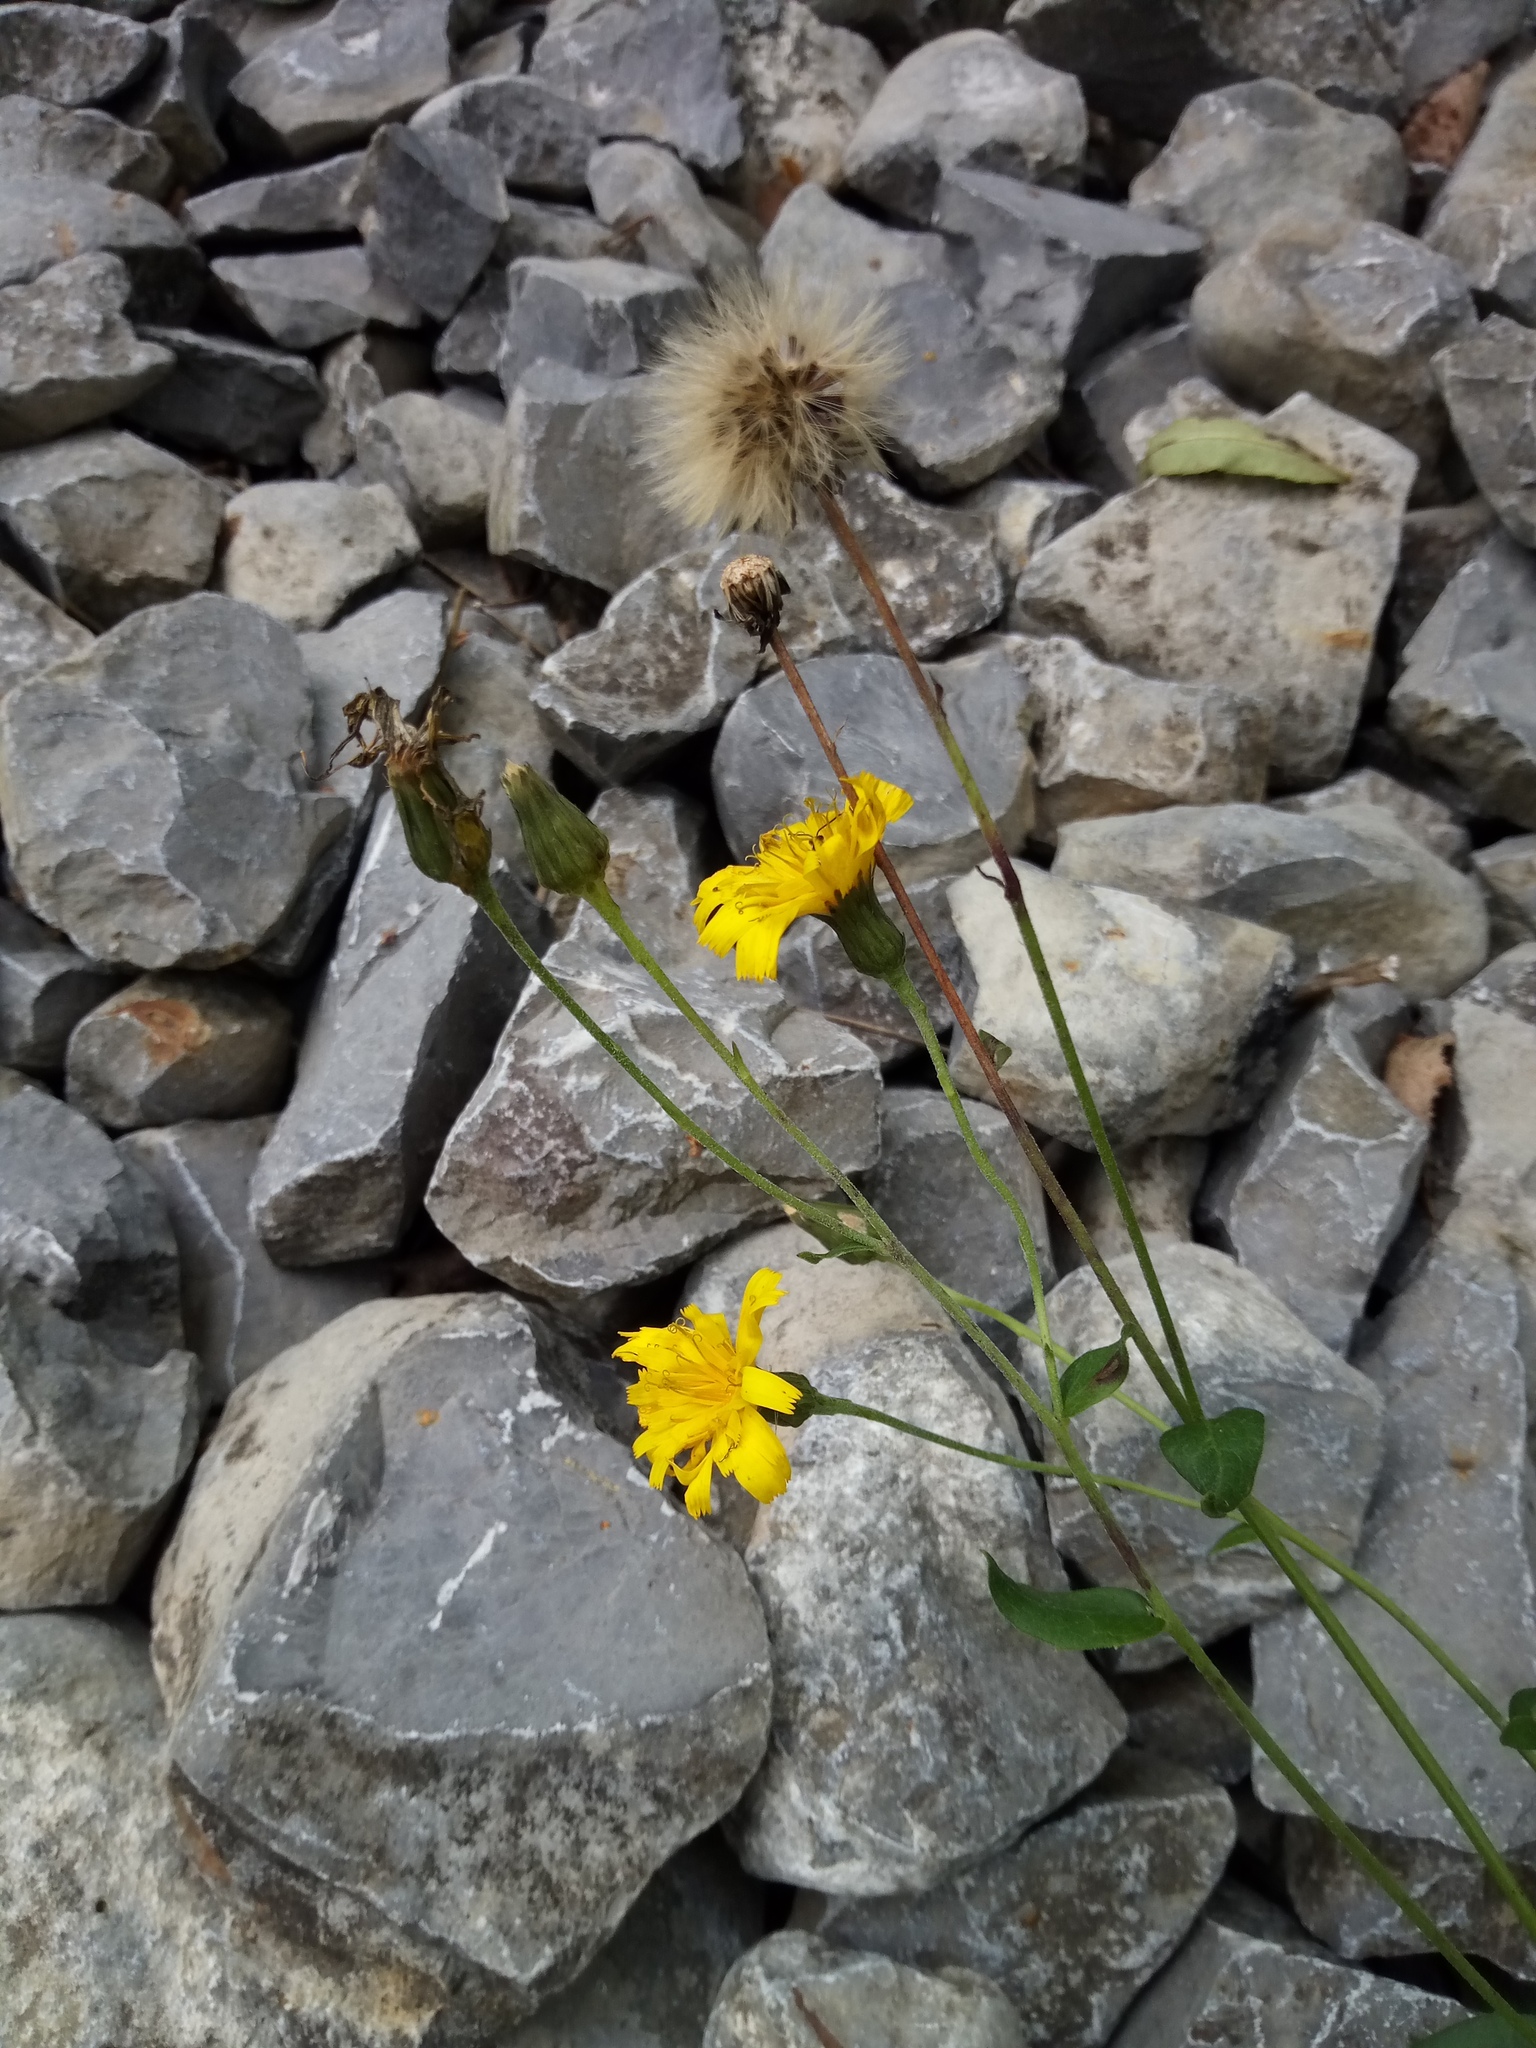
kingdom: Plantae
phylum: Tracheophyta
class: Magnoliopsida
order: Asterales
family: Asteraceae
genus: Hieracium
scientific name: Hieracium sabaudum
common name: New england hawkweed
